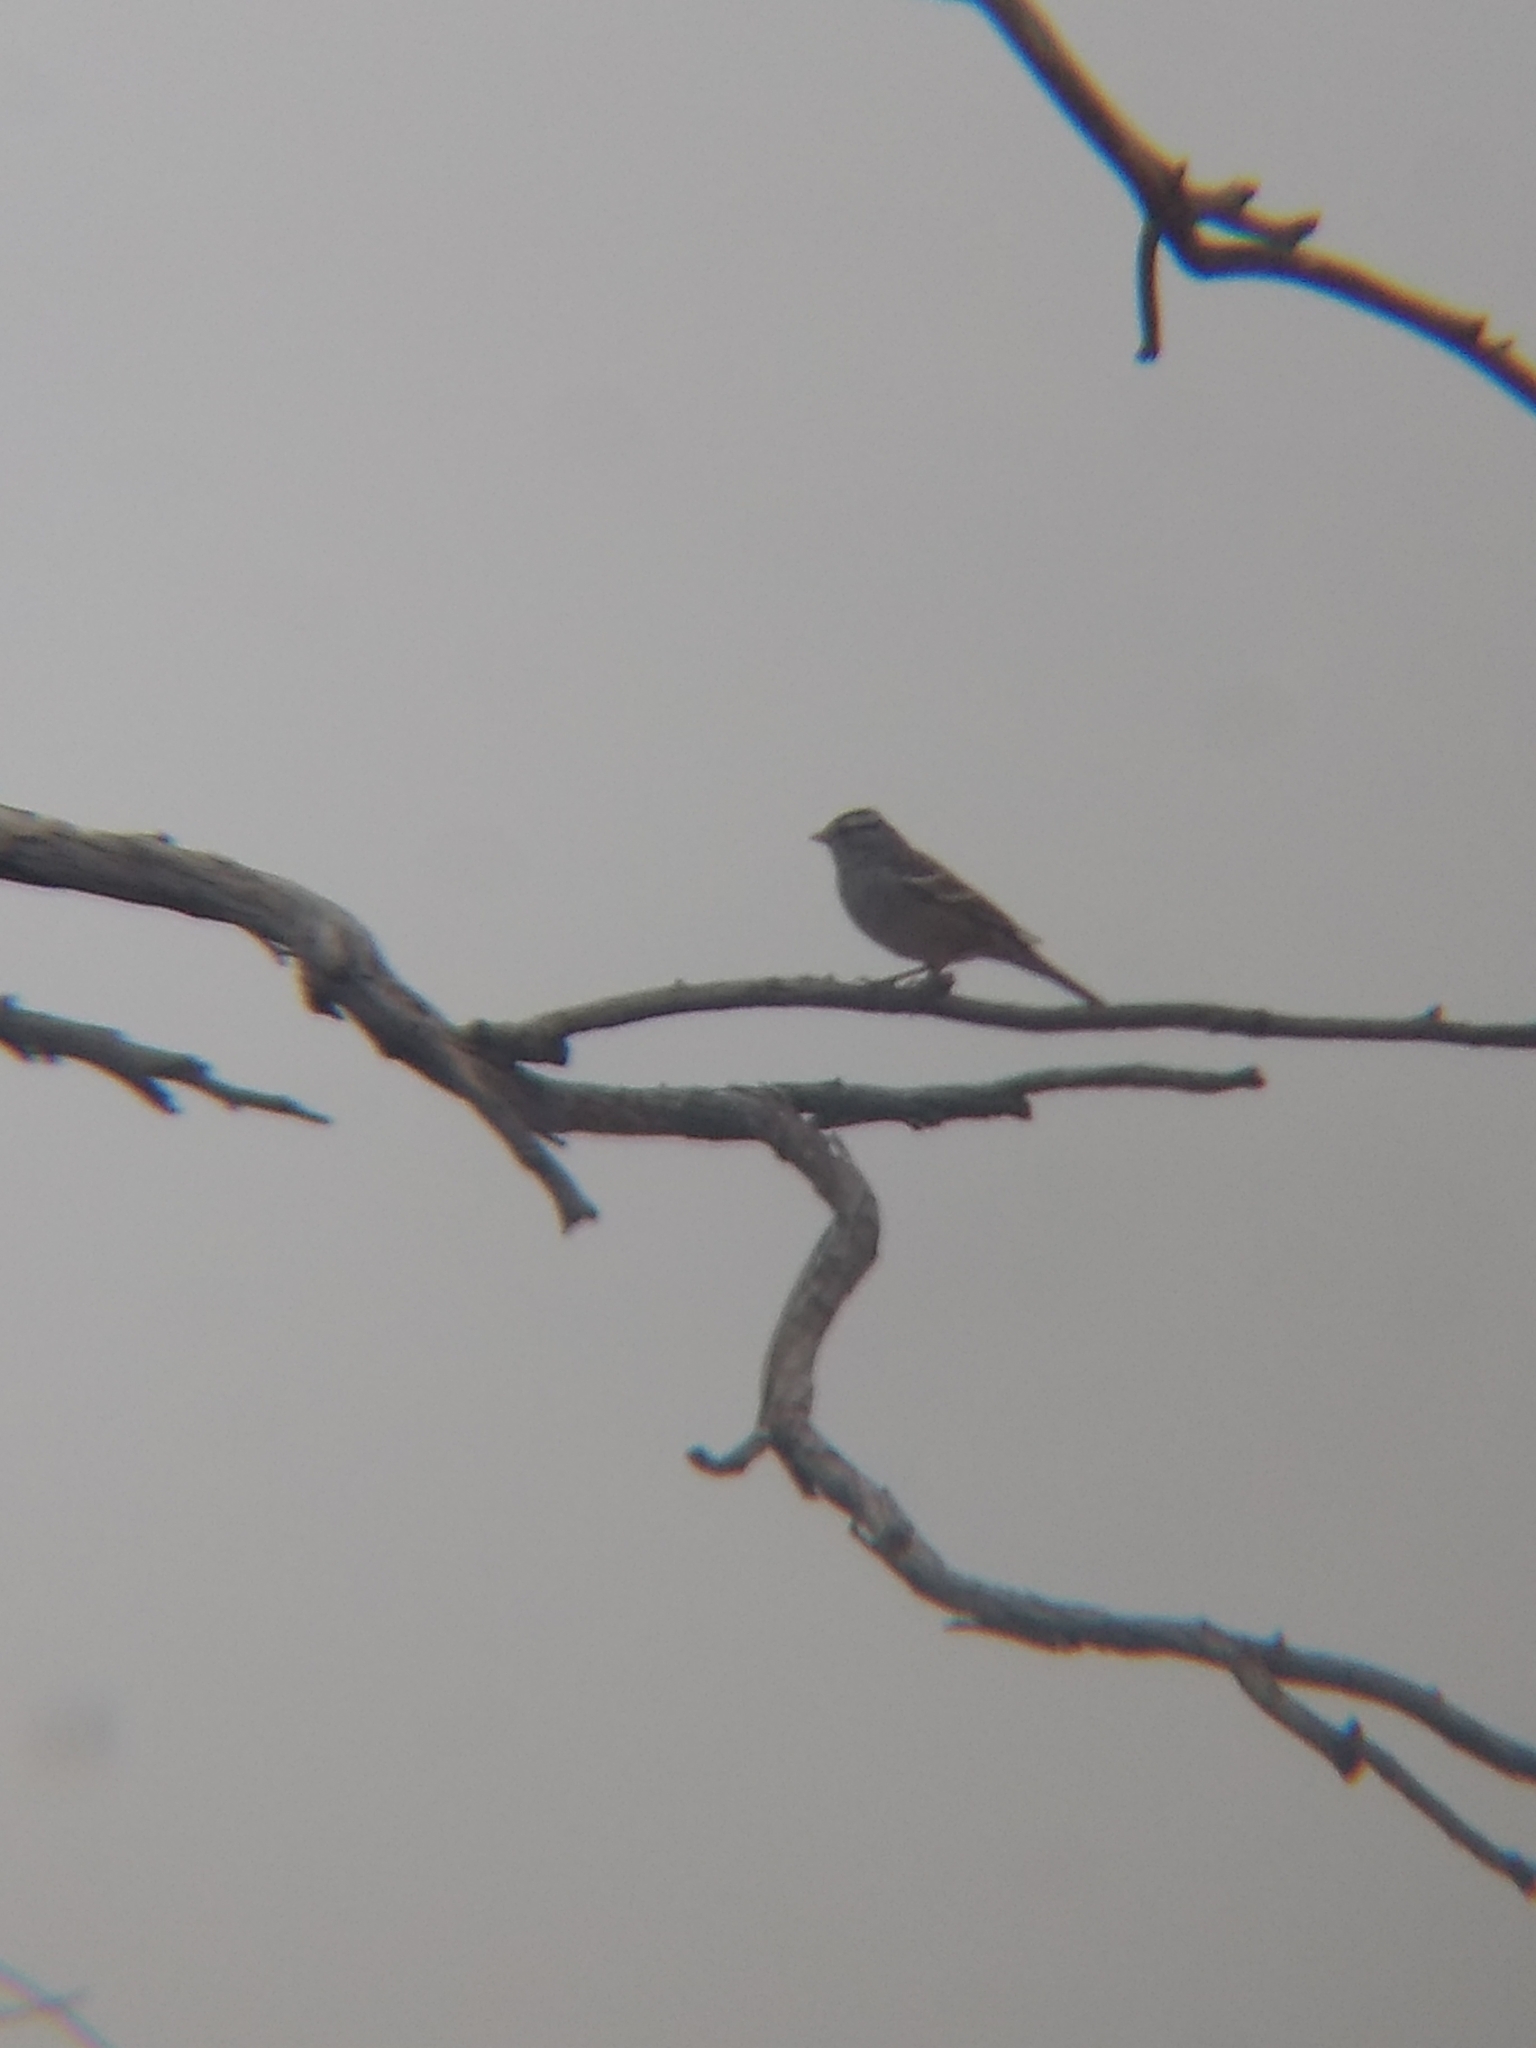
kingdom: Animalia
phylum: Chordata
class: Aves
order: Passeriformes
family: Passerellidae
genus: Zonotrichia
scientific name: Zonotrichia leucophrys
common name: White-crowned sparrow
